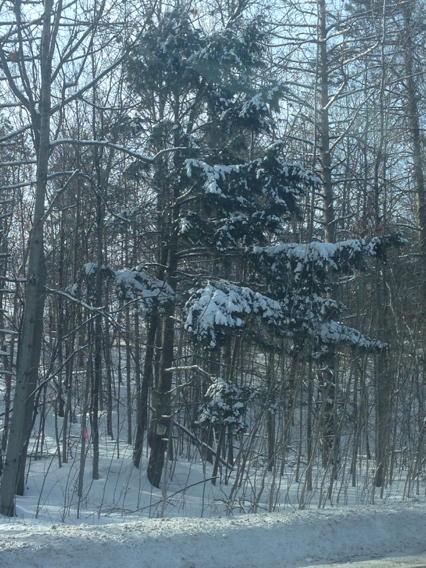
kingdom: Plantae
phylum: Tracheophyta
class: Pinopsida
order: Pinales
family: Pinaceae
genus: Tsuga
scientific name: Tsuga canadensis
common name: Eastern hemlock
